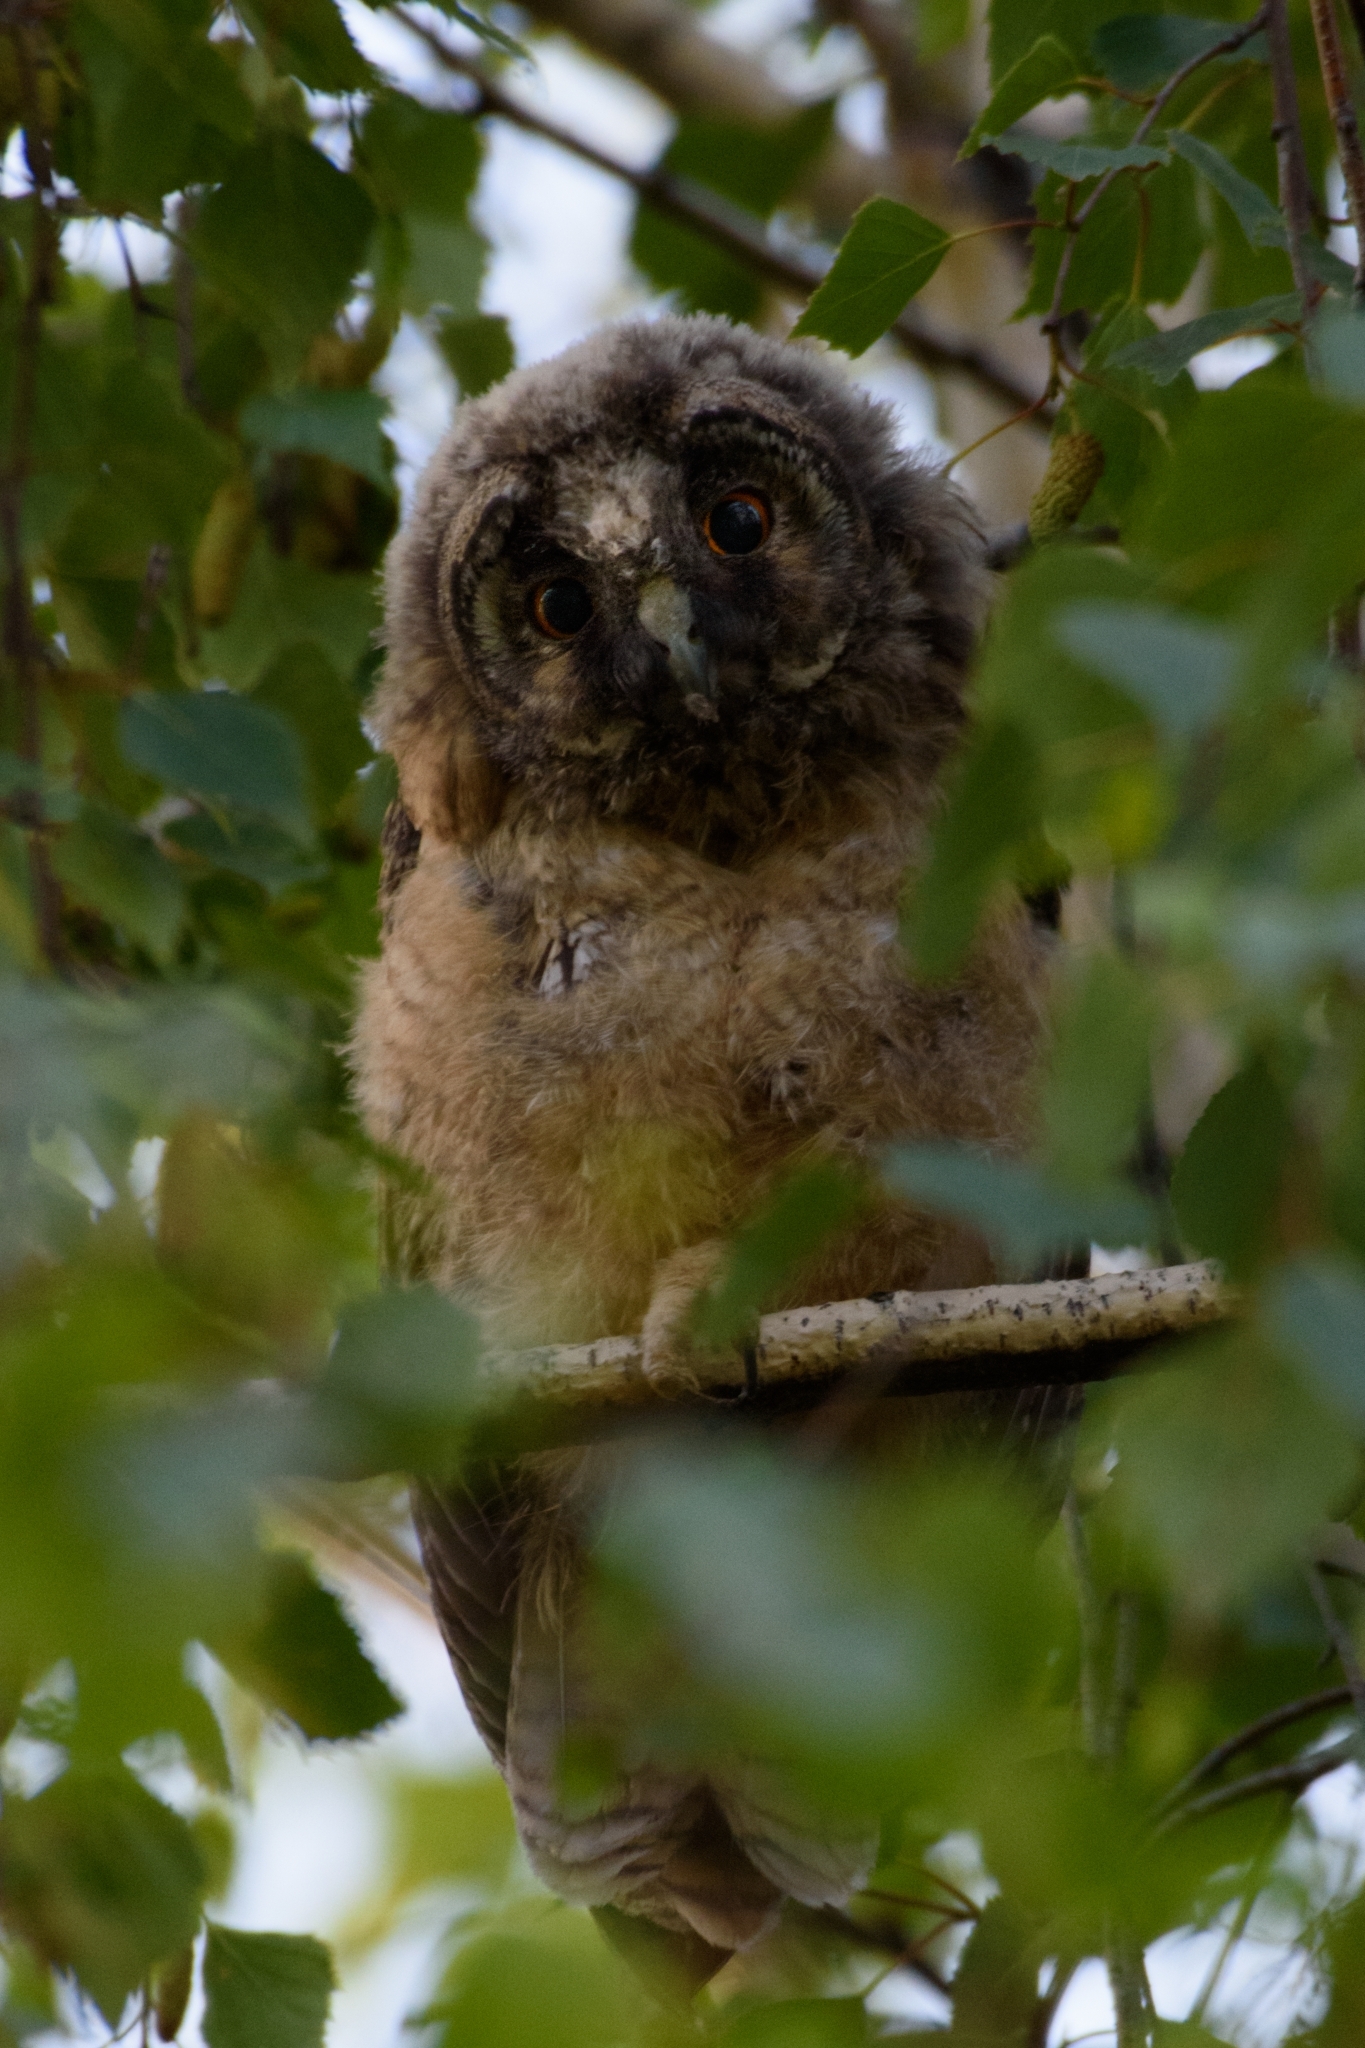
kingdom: Animalia
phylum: Chordata
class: Aves
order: Strigiformes
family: Strigidae
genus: Asio
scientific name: Asio otus
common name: Long-eared owl
